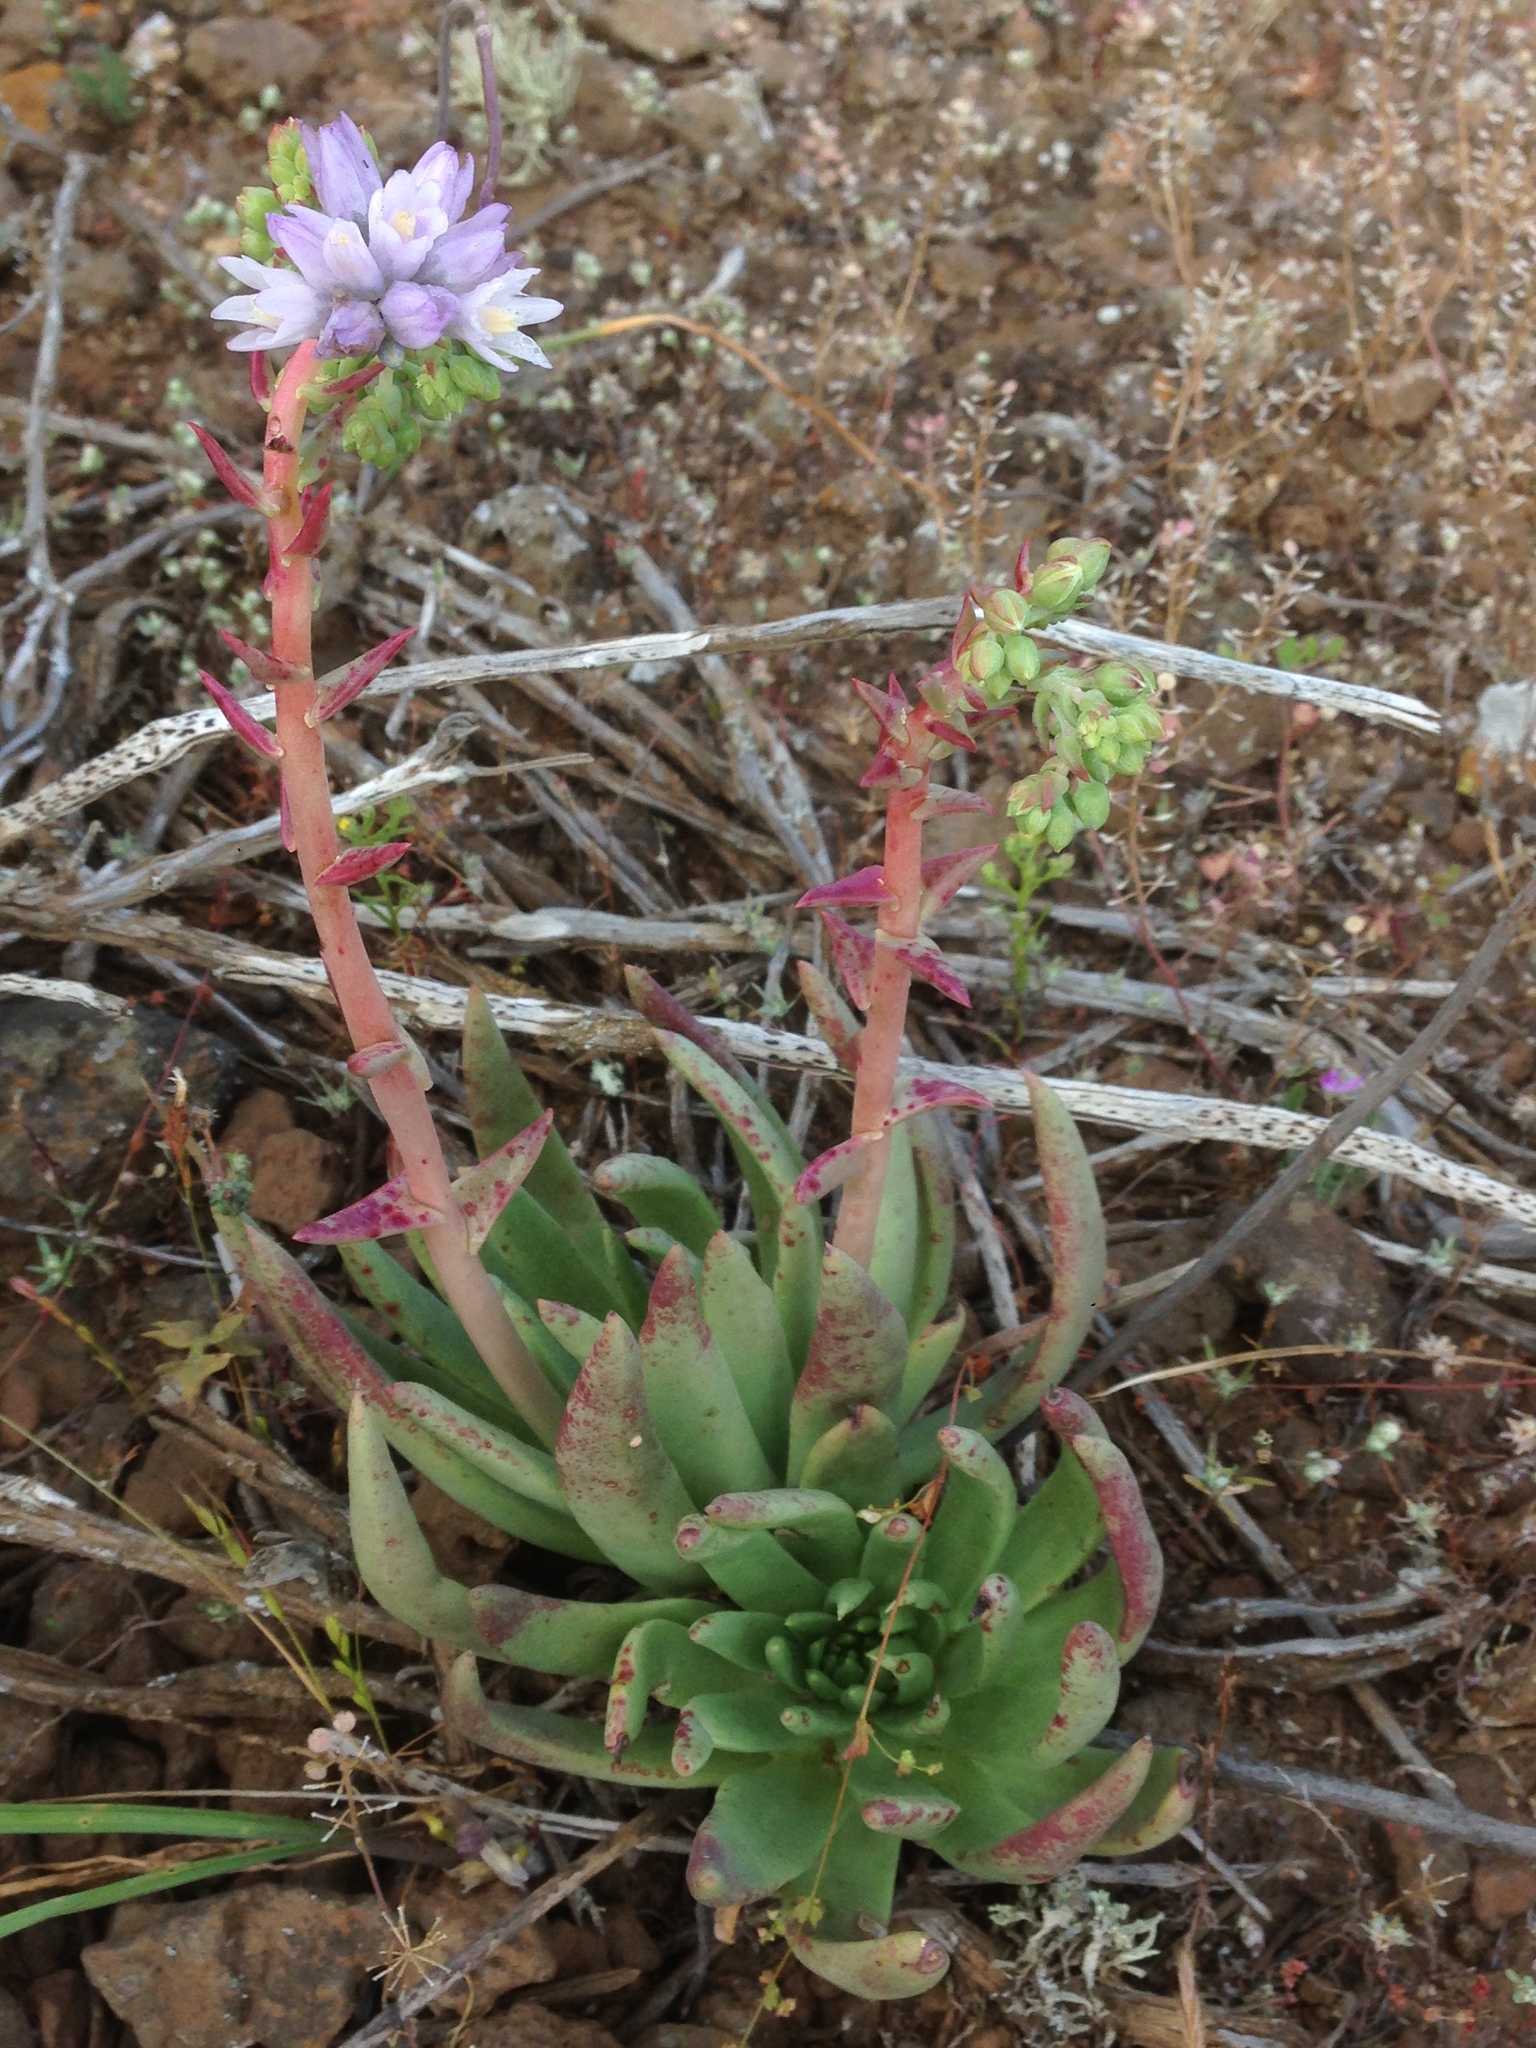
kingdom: Plantae
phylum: Tracheophyta
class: Liliopsida
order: Asparagales
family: Asparagaceae
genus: Dipterostemon
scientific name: Dipterostemon capitatus
